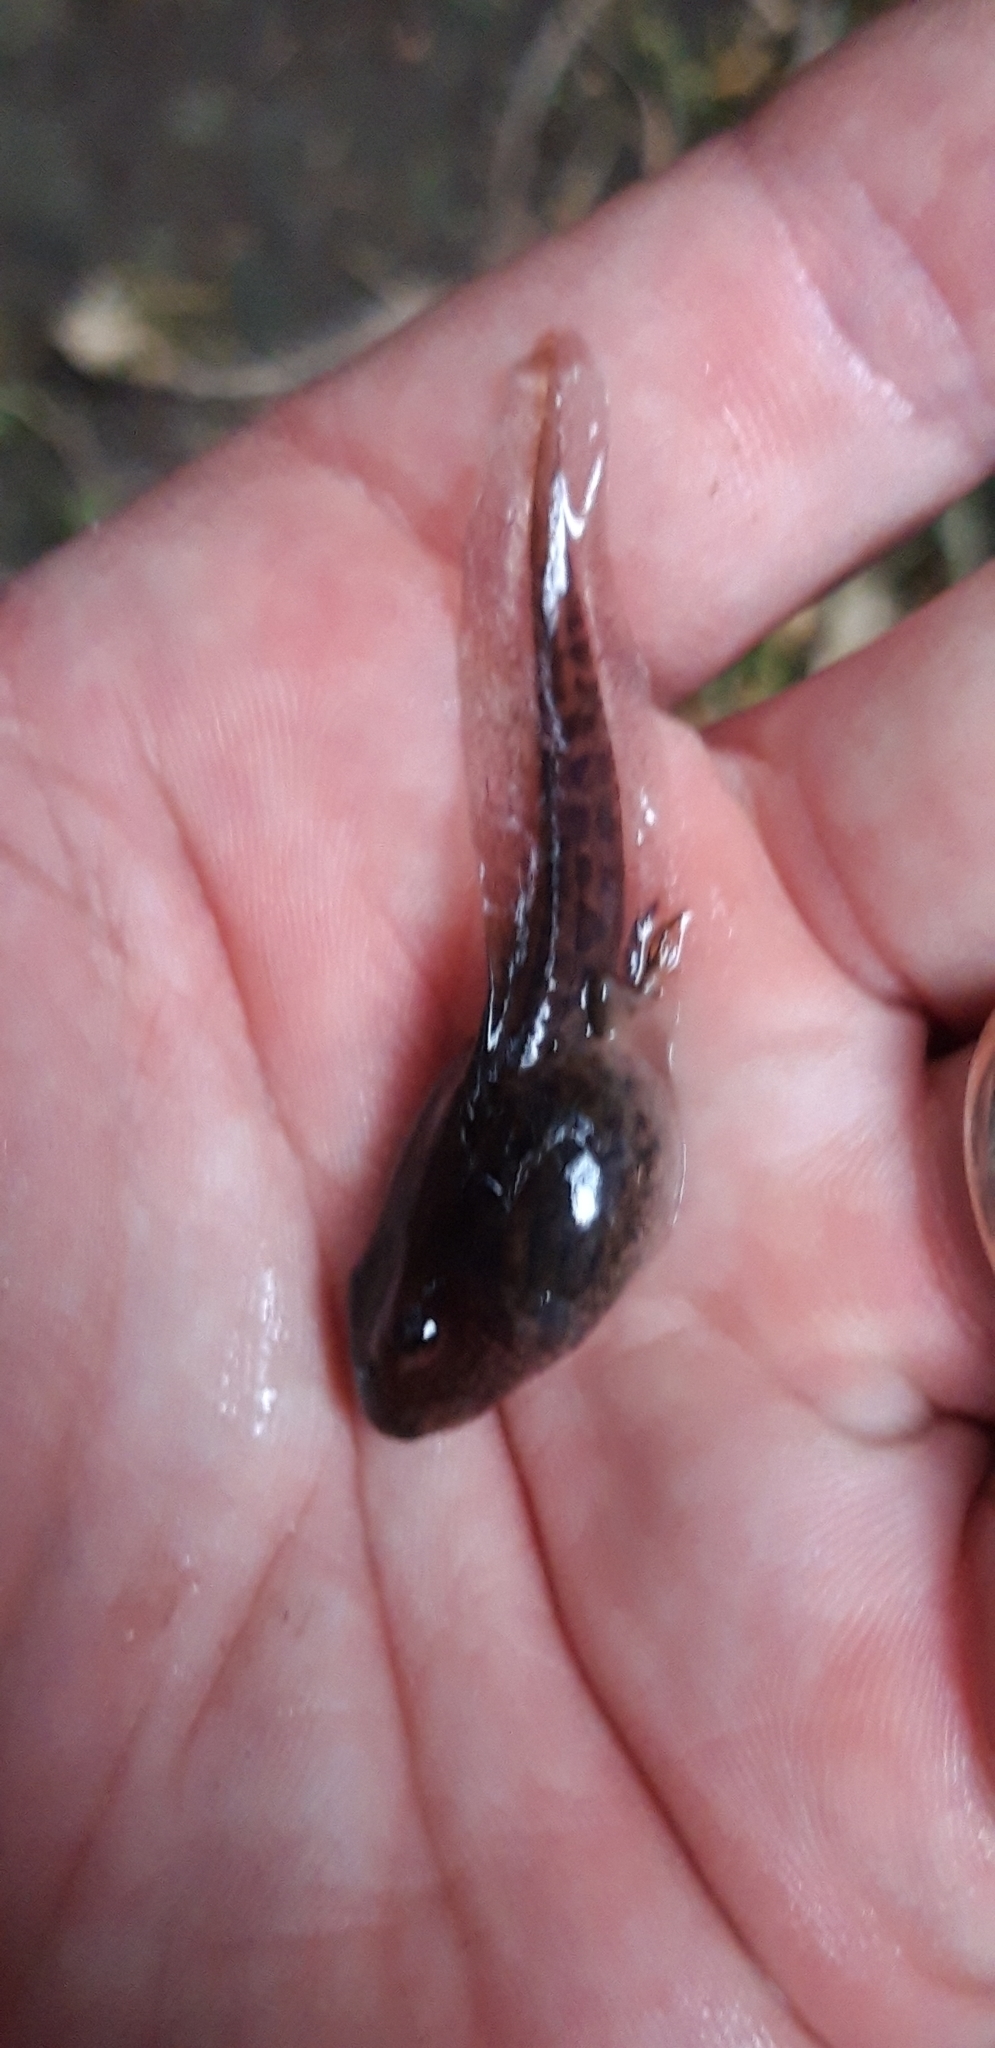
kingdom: Animalia
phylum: Chordata
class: Amphibia
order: Anura
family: Pyxicephalidae
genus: Strongylopus
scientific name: Strongylopus grayii
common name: Gray's stream frog
